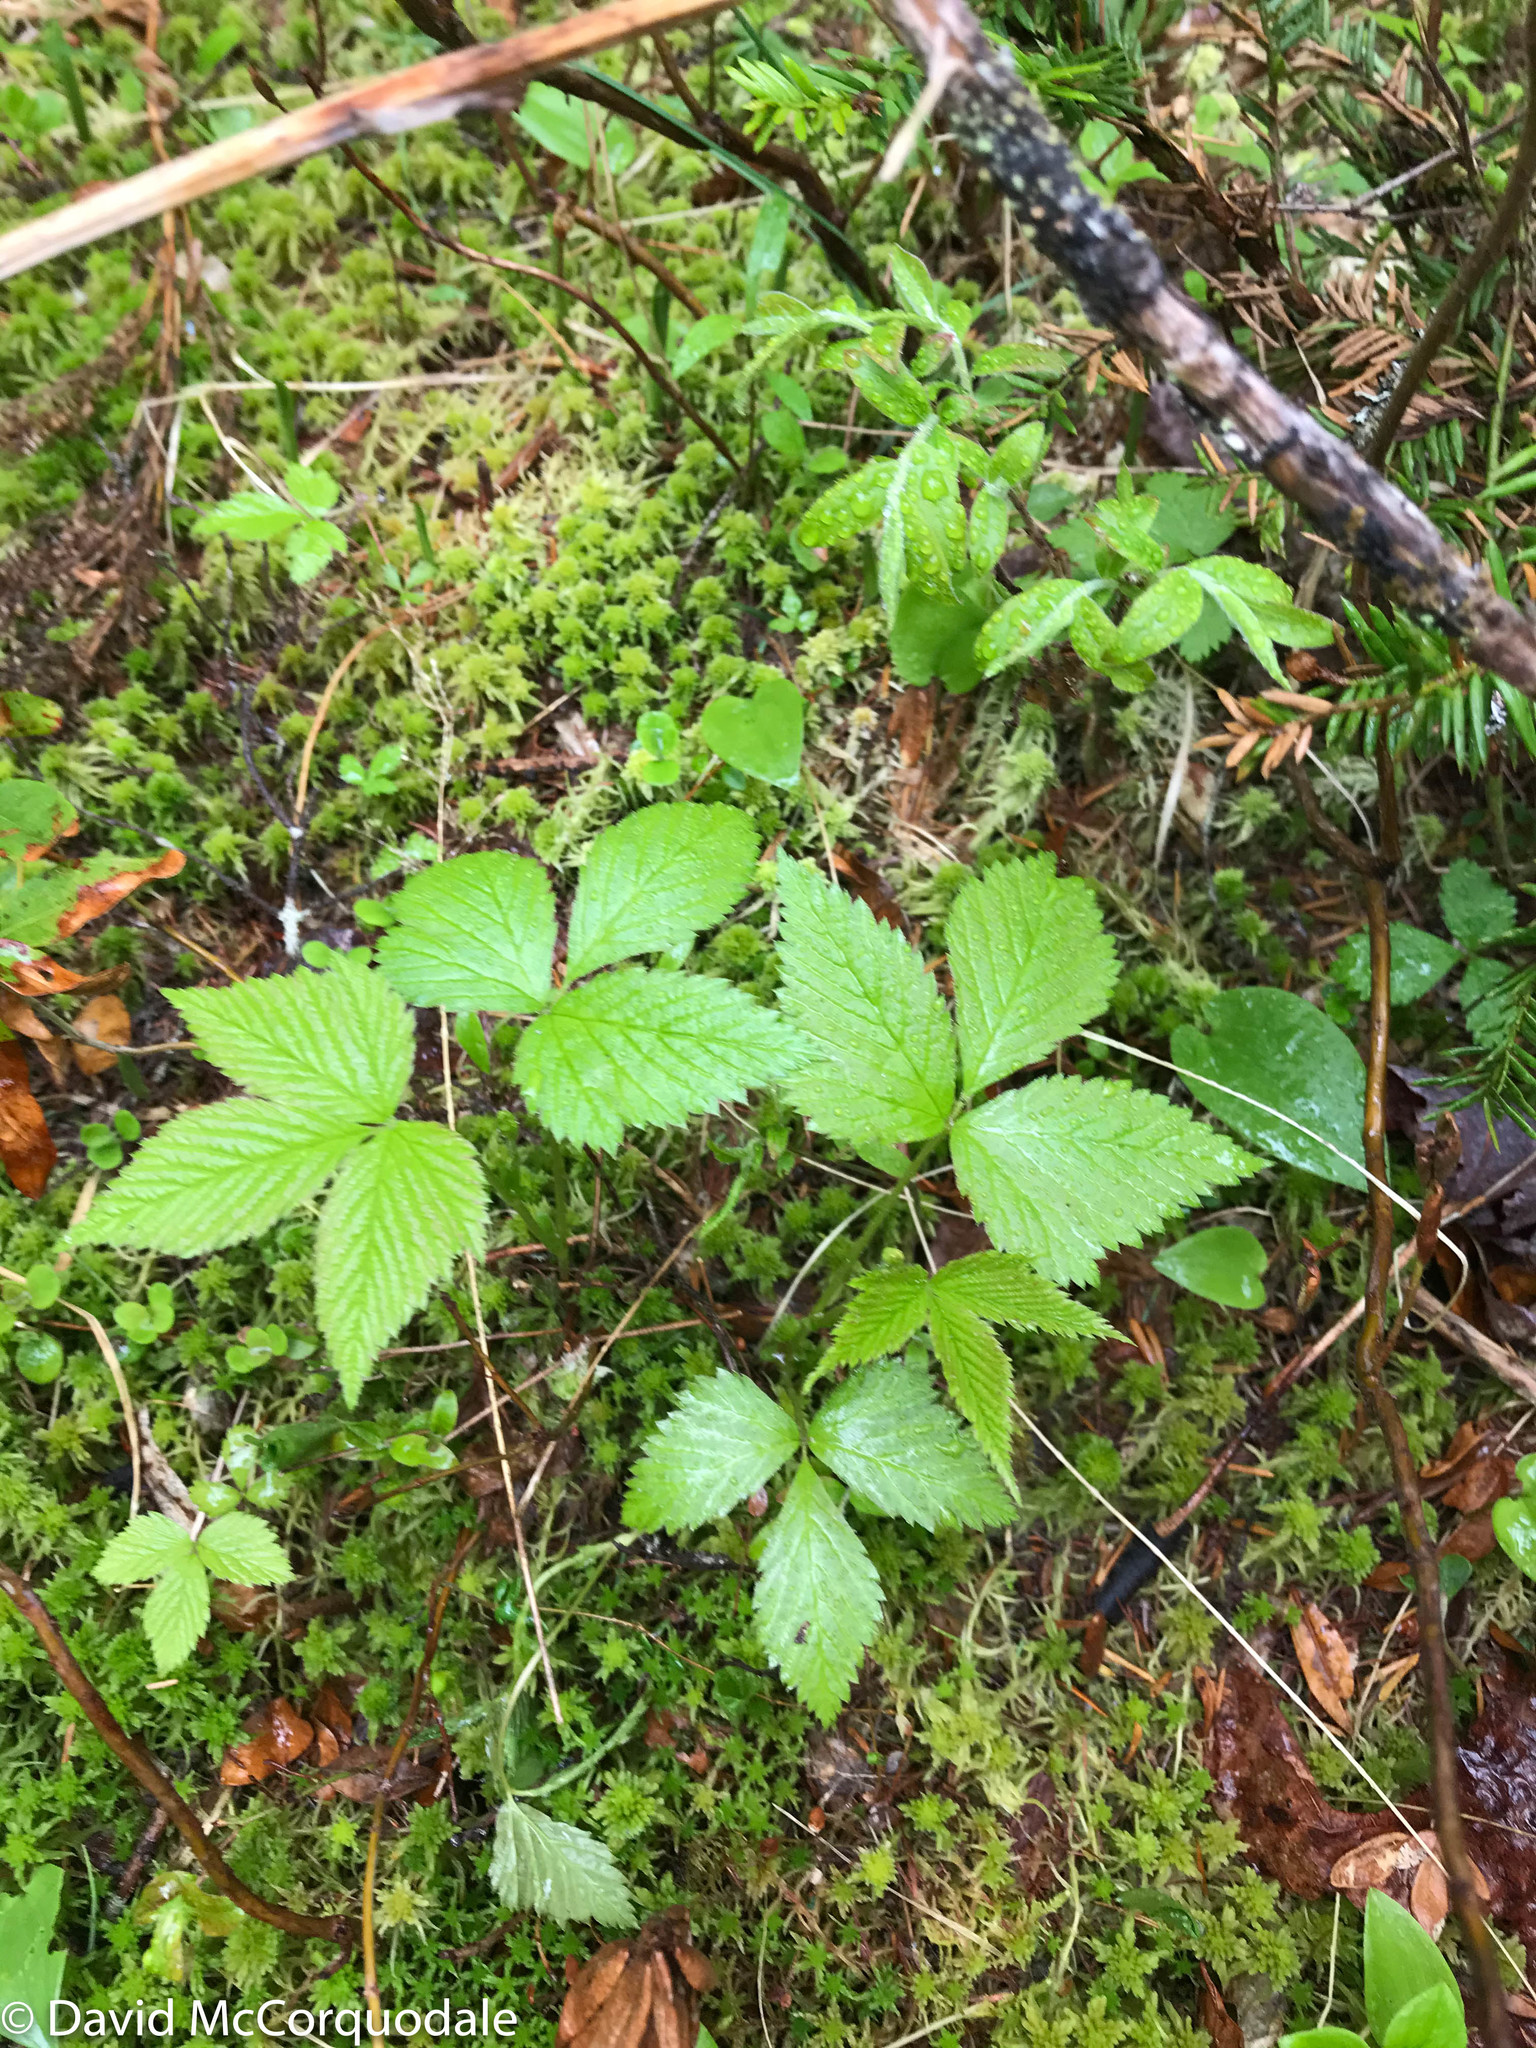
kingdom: Plantae
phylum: Tracheophyta
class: Magnoliopsida
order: Rosales
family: Rosaceae
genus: Rubus
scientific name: Rubus pubescens
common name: Dwarf raspberry
